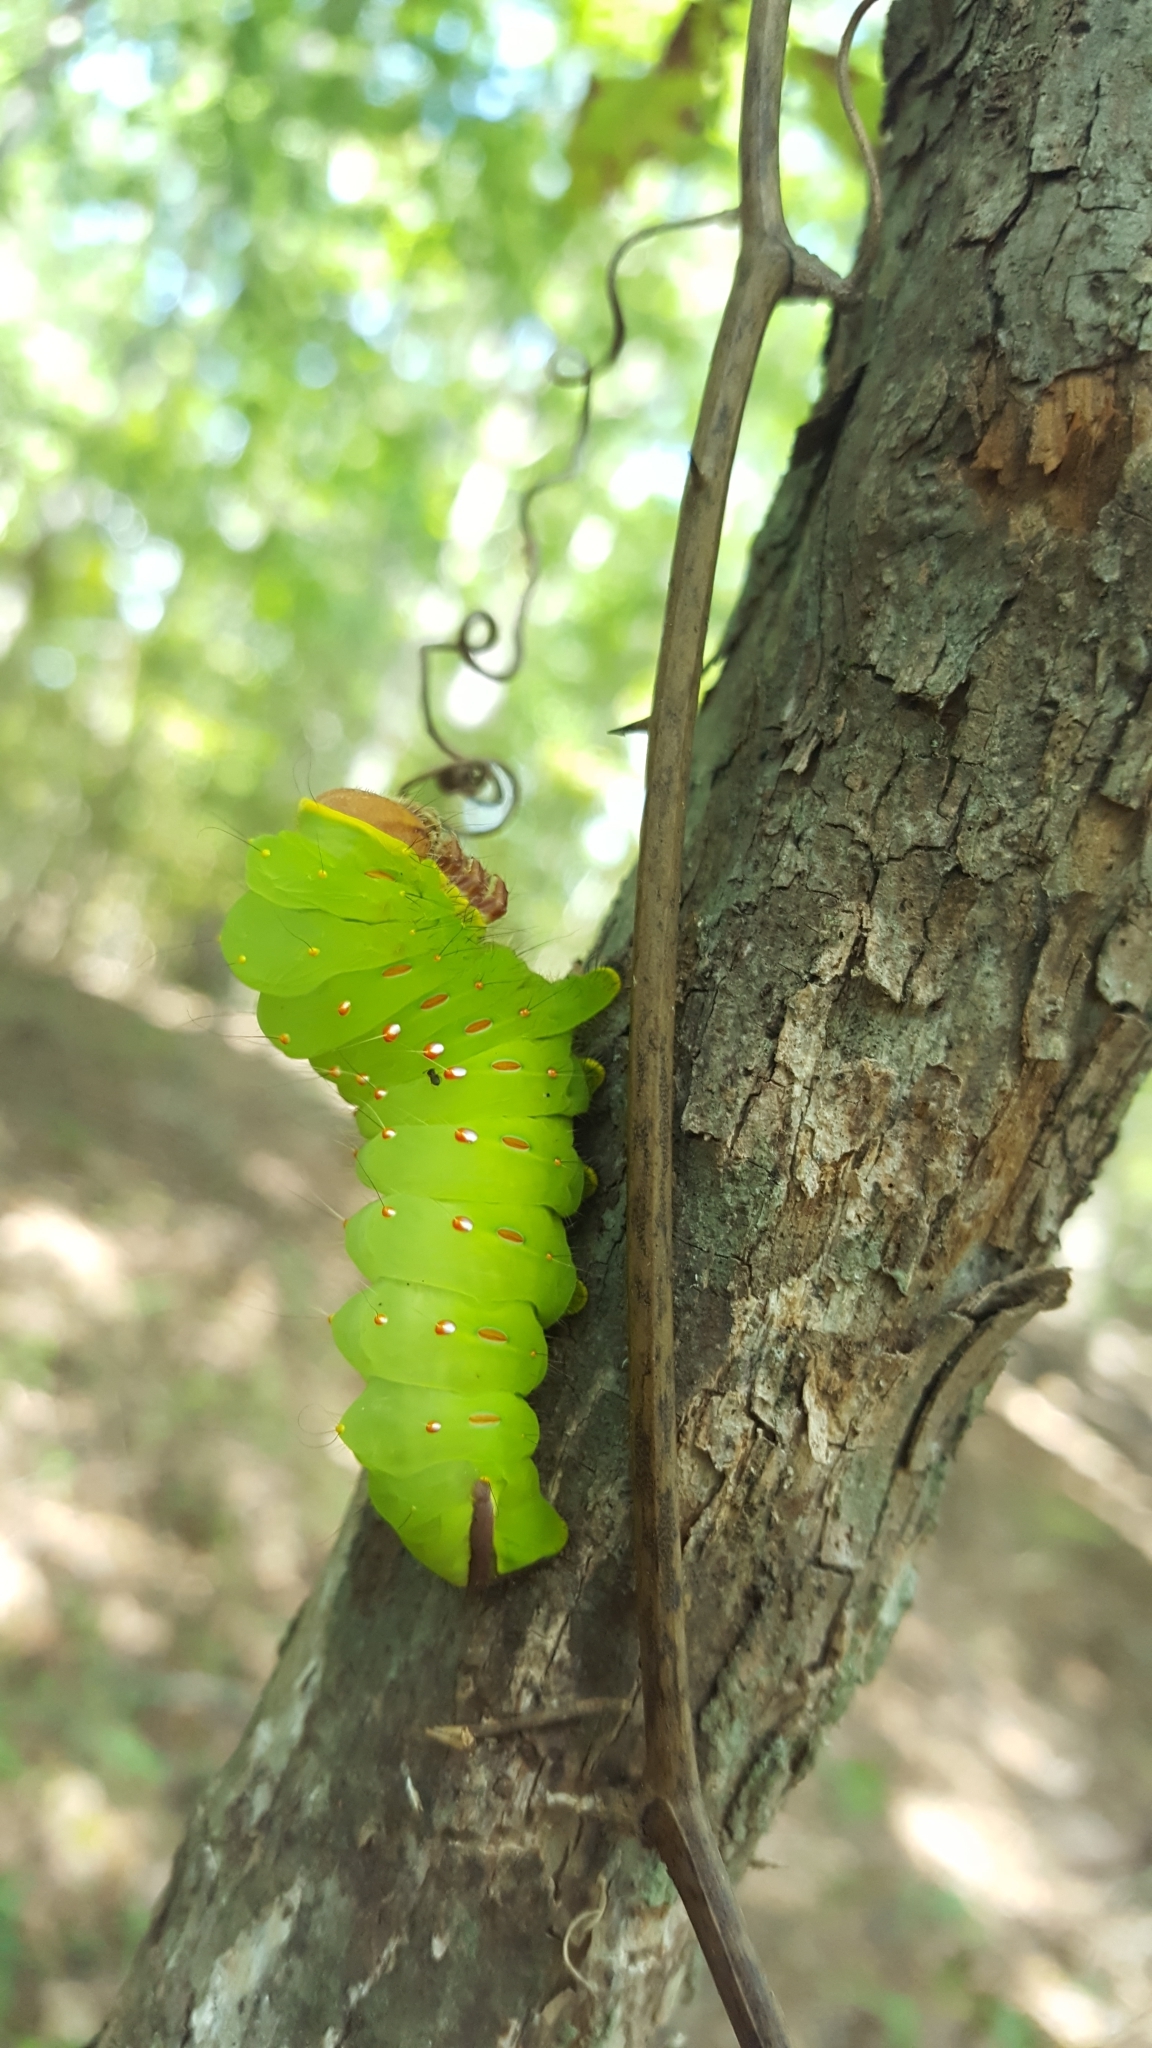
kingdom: Animalia
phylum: Arthropoda
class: Insecta
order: Lepidoptera
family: Saturniidae
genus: Antheraea
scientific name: Antheraea polyphemus
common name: Polyphemus moth
